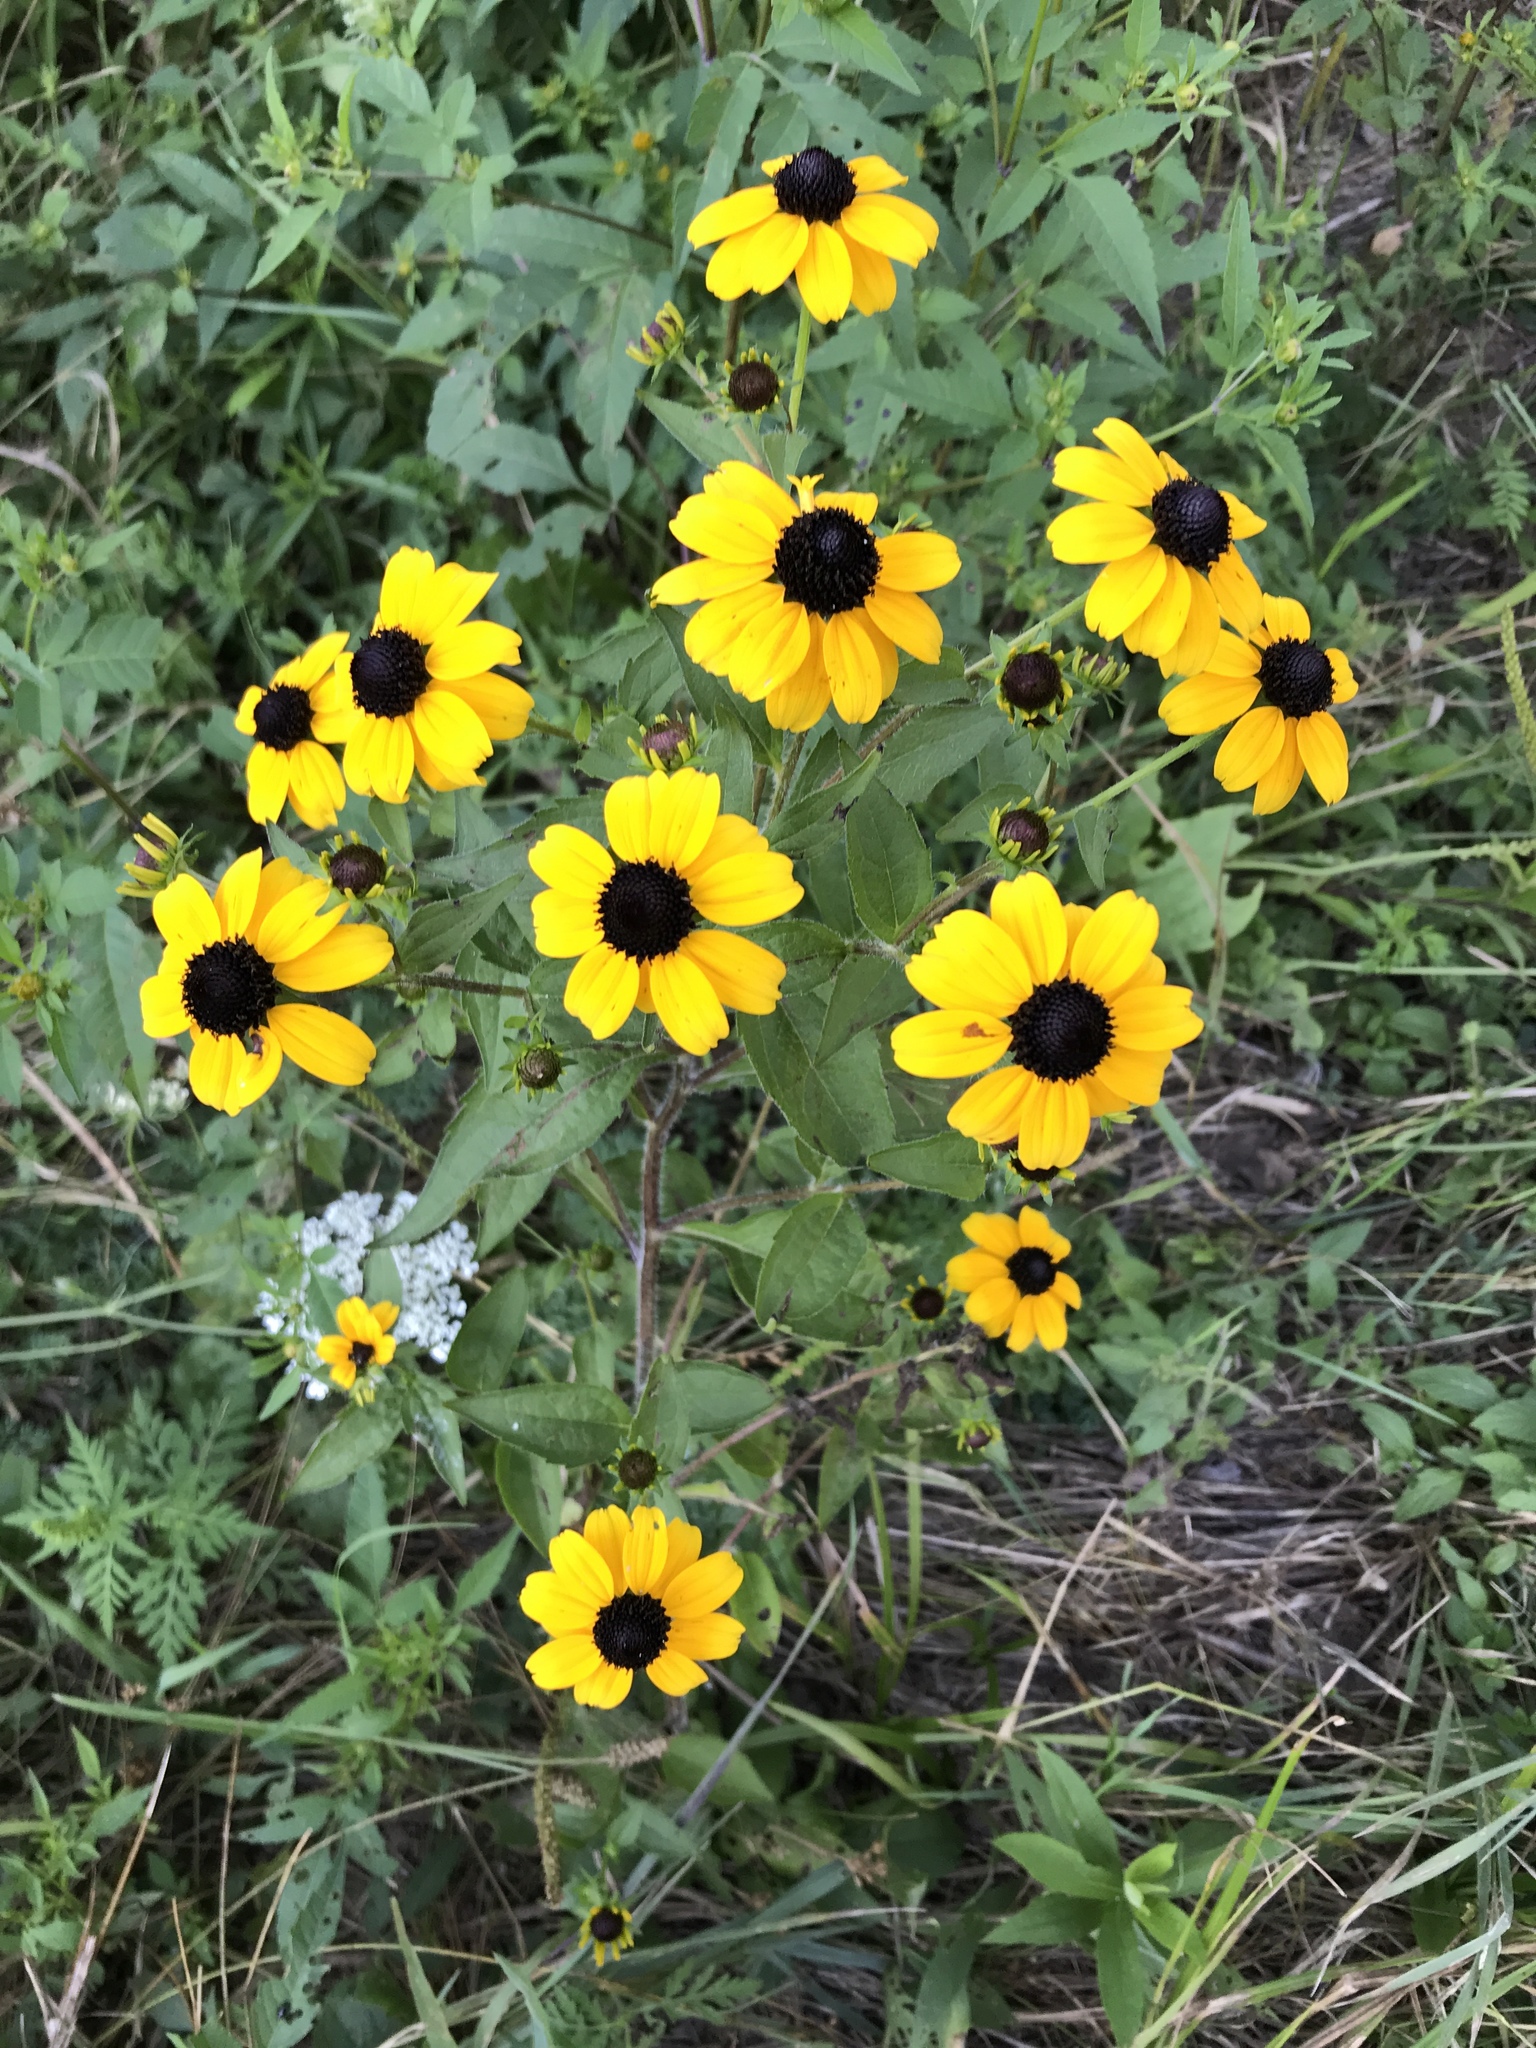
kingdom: Plantae
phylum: Tracheophyta
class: Magnoliopsida
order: Asterales
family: Asteraceae
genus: Rudbeckia
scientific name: Rudbeckia triloba
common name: Thin-leaved coneflower
